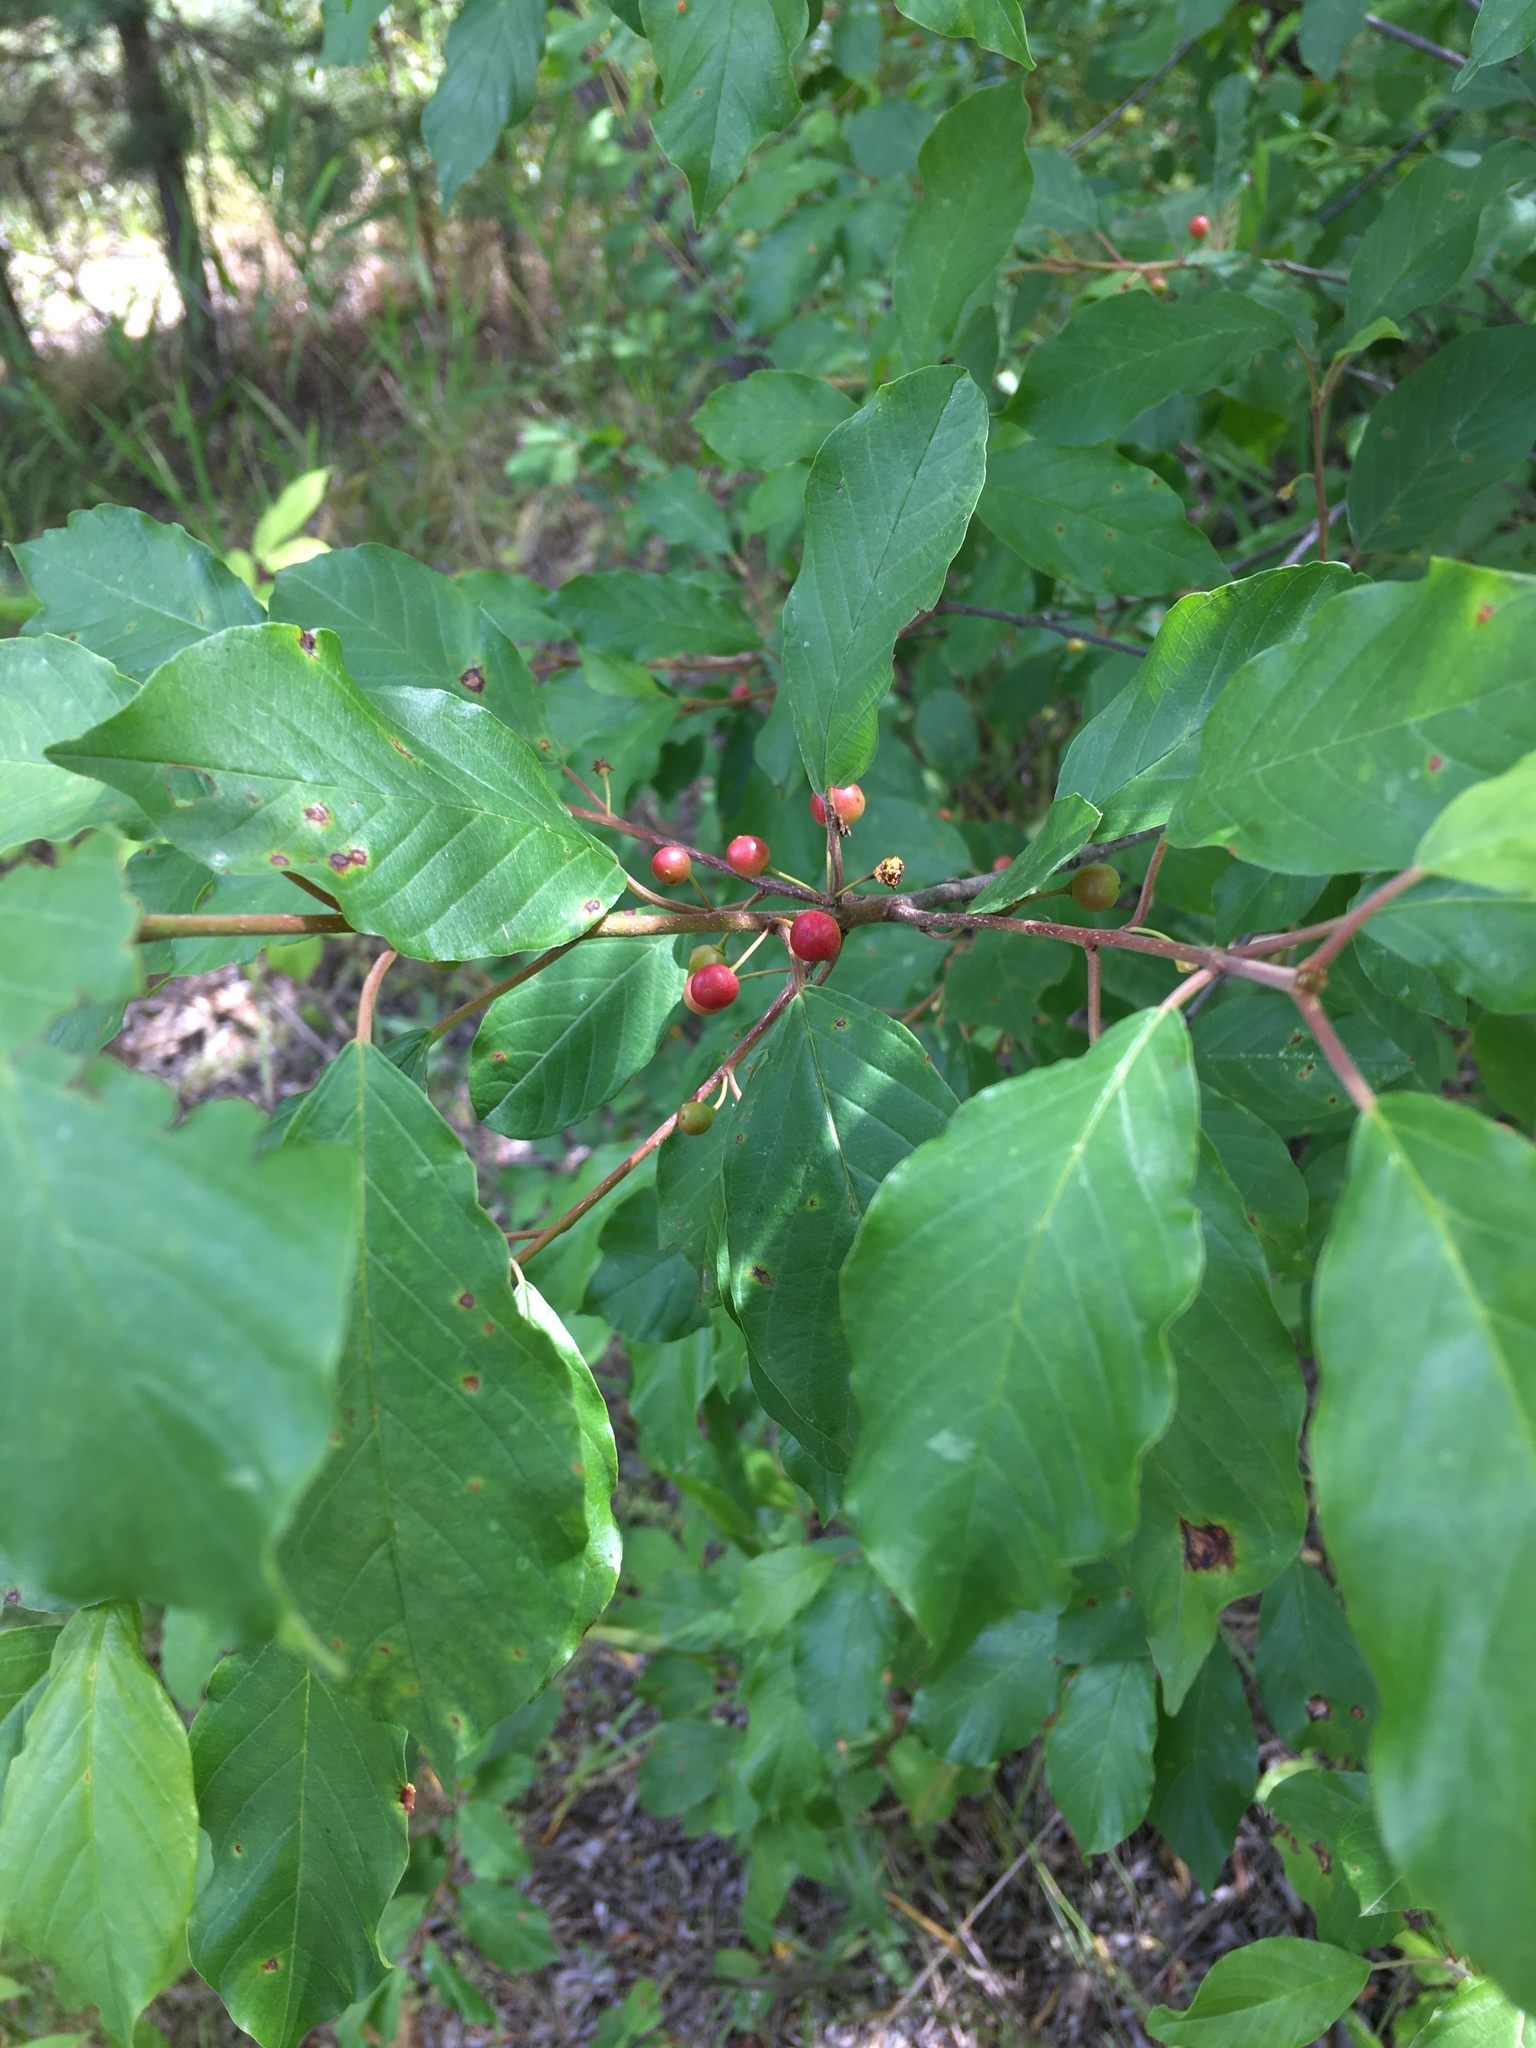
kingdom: Plantae
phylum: Tracheophyta
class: Magnoliopsida
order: Rosales
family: Rhamnaceae
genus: Frangula
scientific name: Frangula alnus
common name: Alder buckthorn
